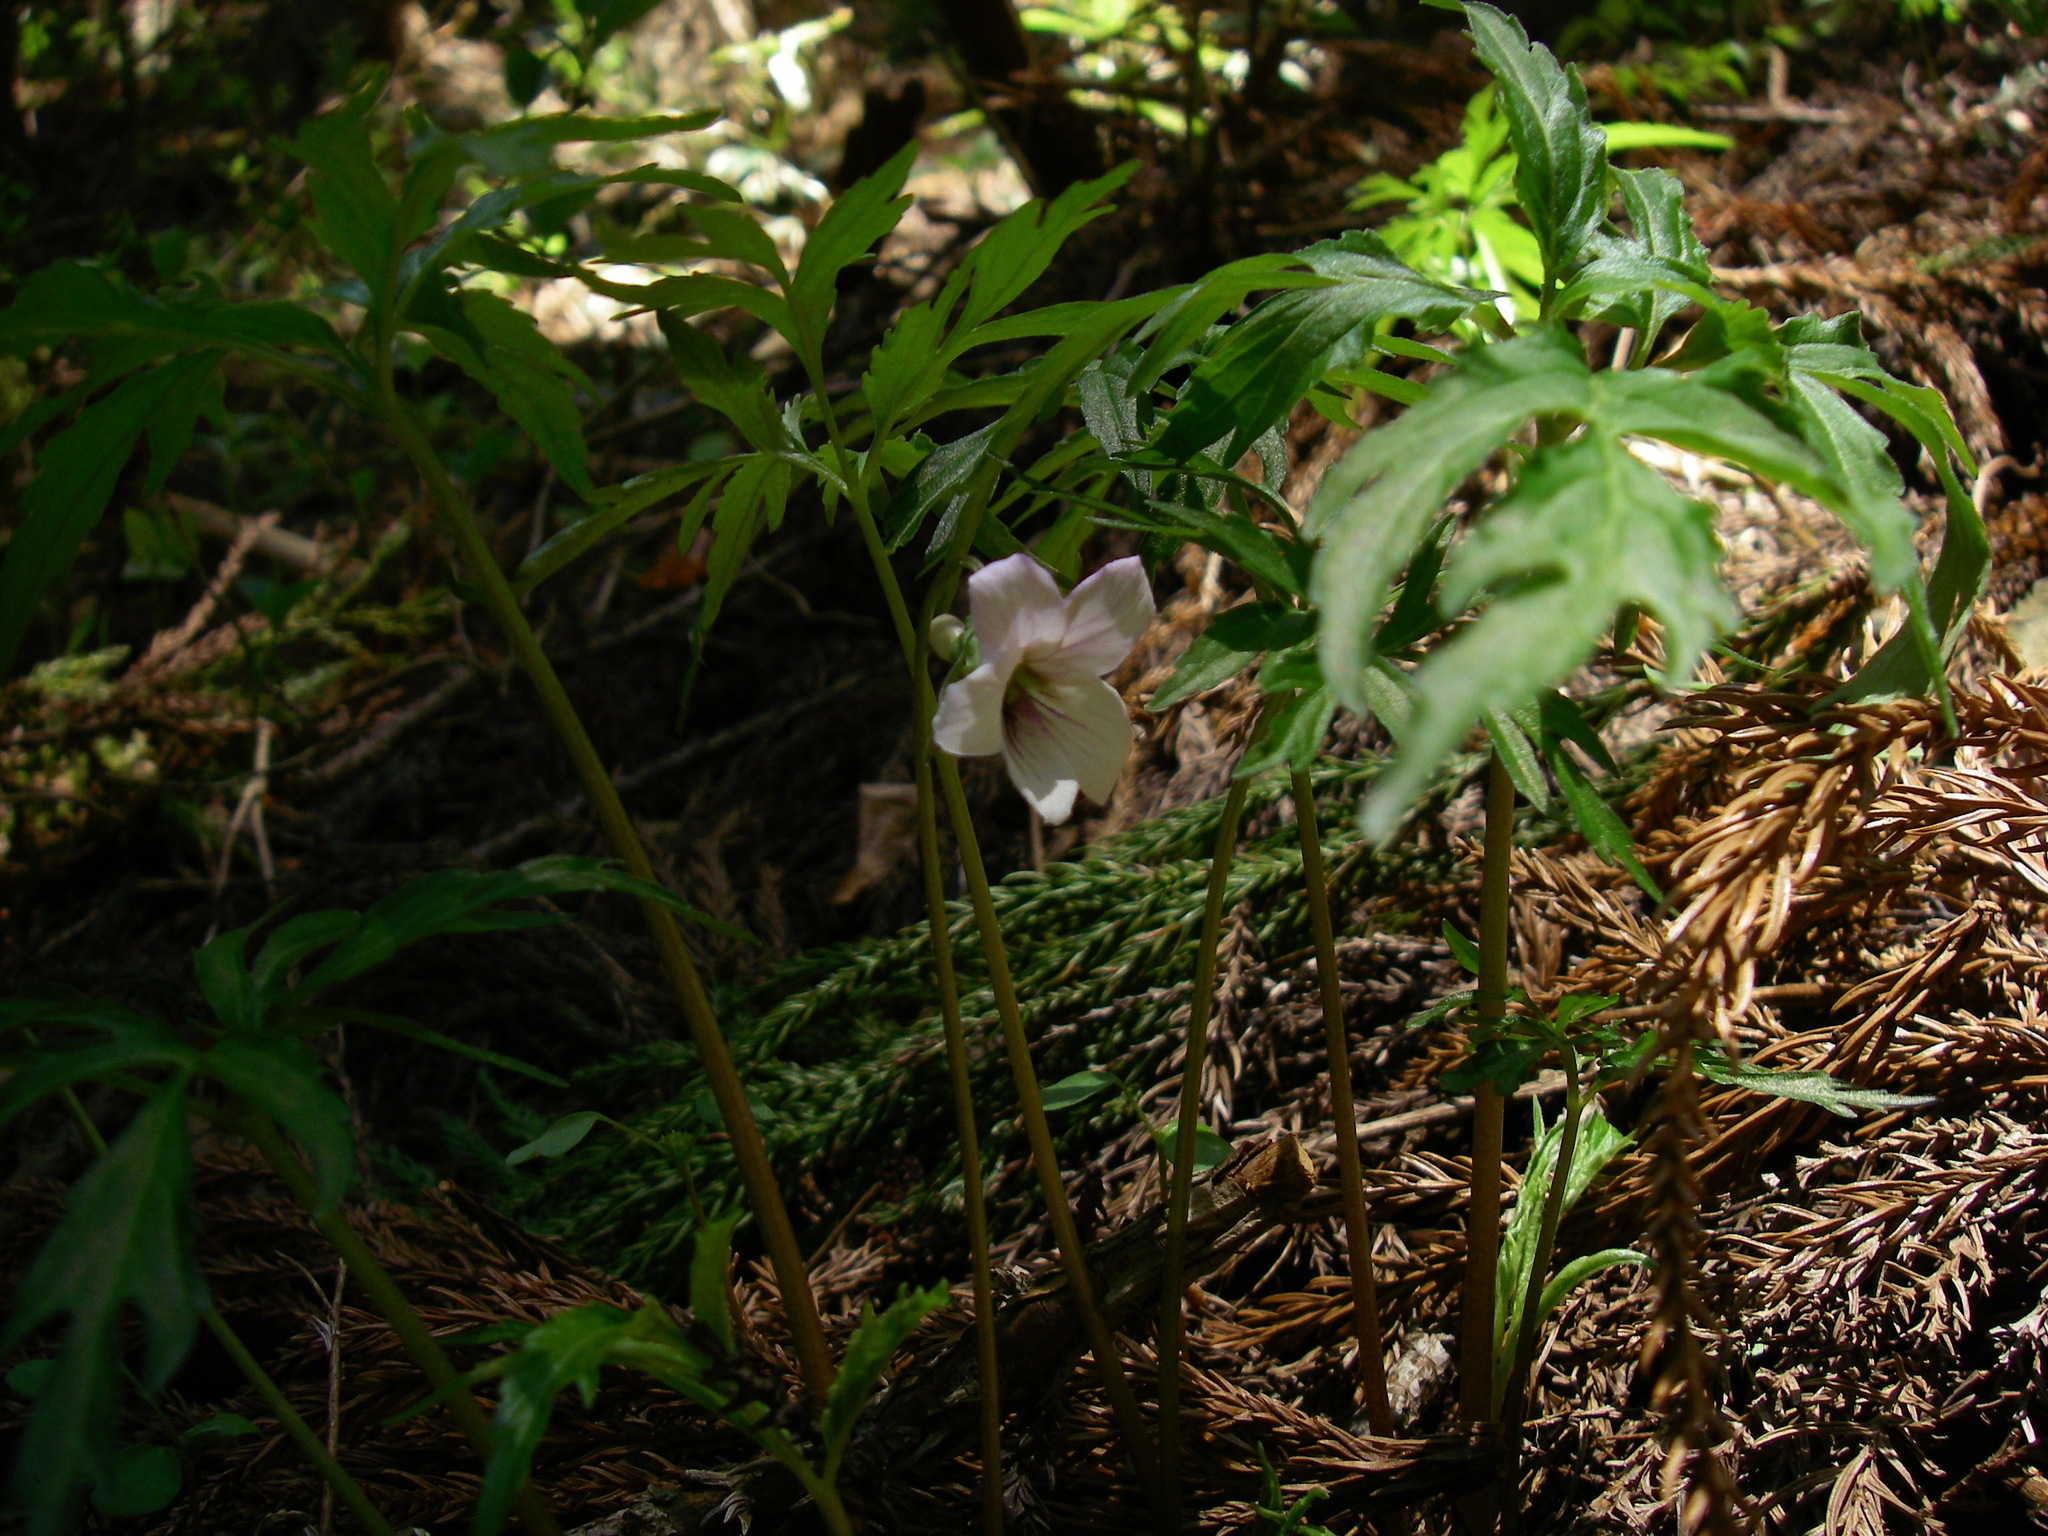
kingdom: Plantae
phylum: Tracheophyta
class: Magnoliopsida
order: Malpighiales
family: Violaceae
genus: Viola
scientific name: Viola albida
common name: Korean violet
